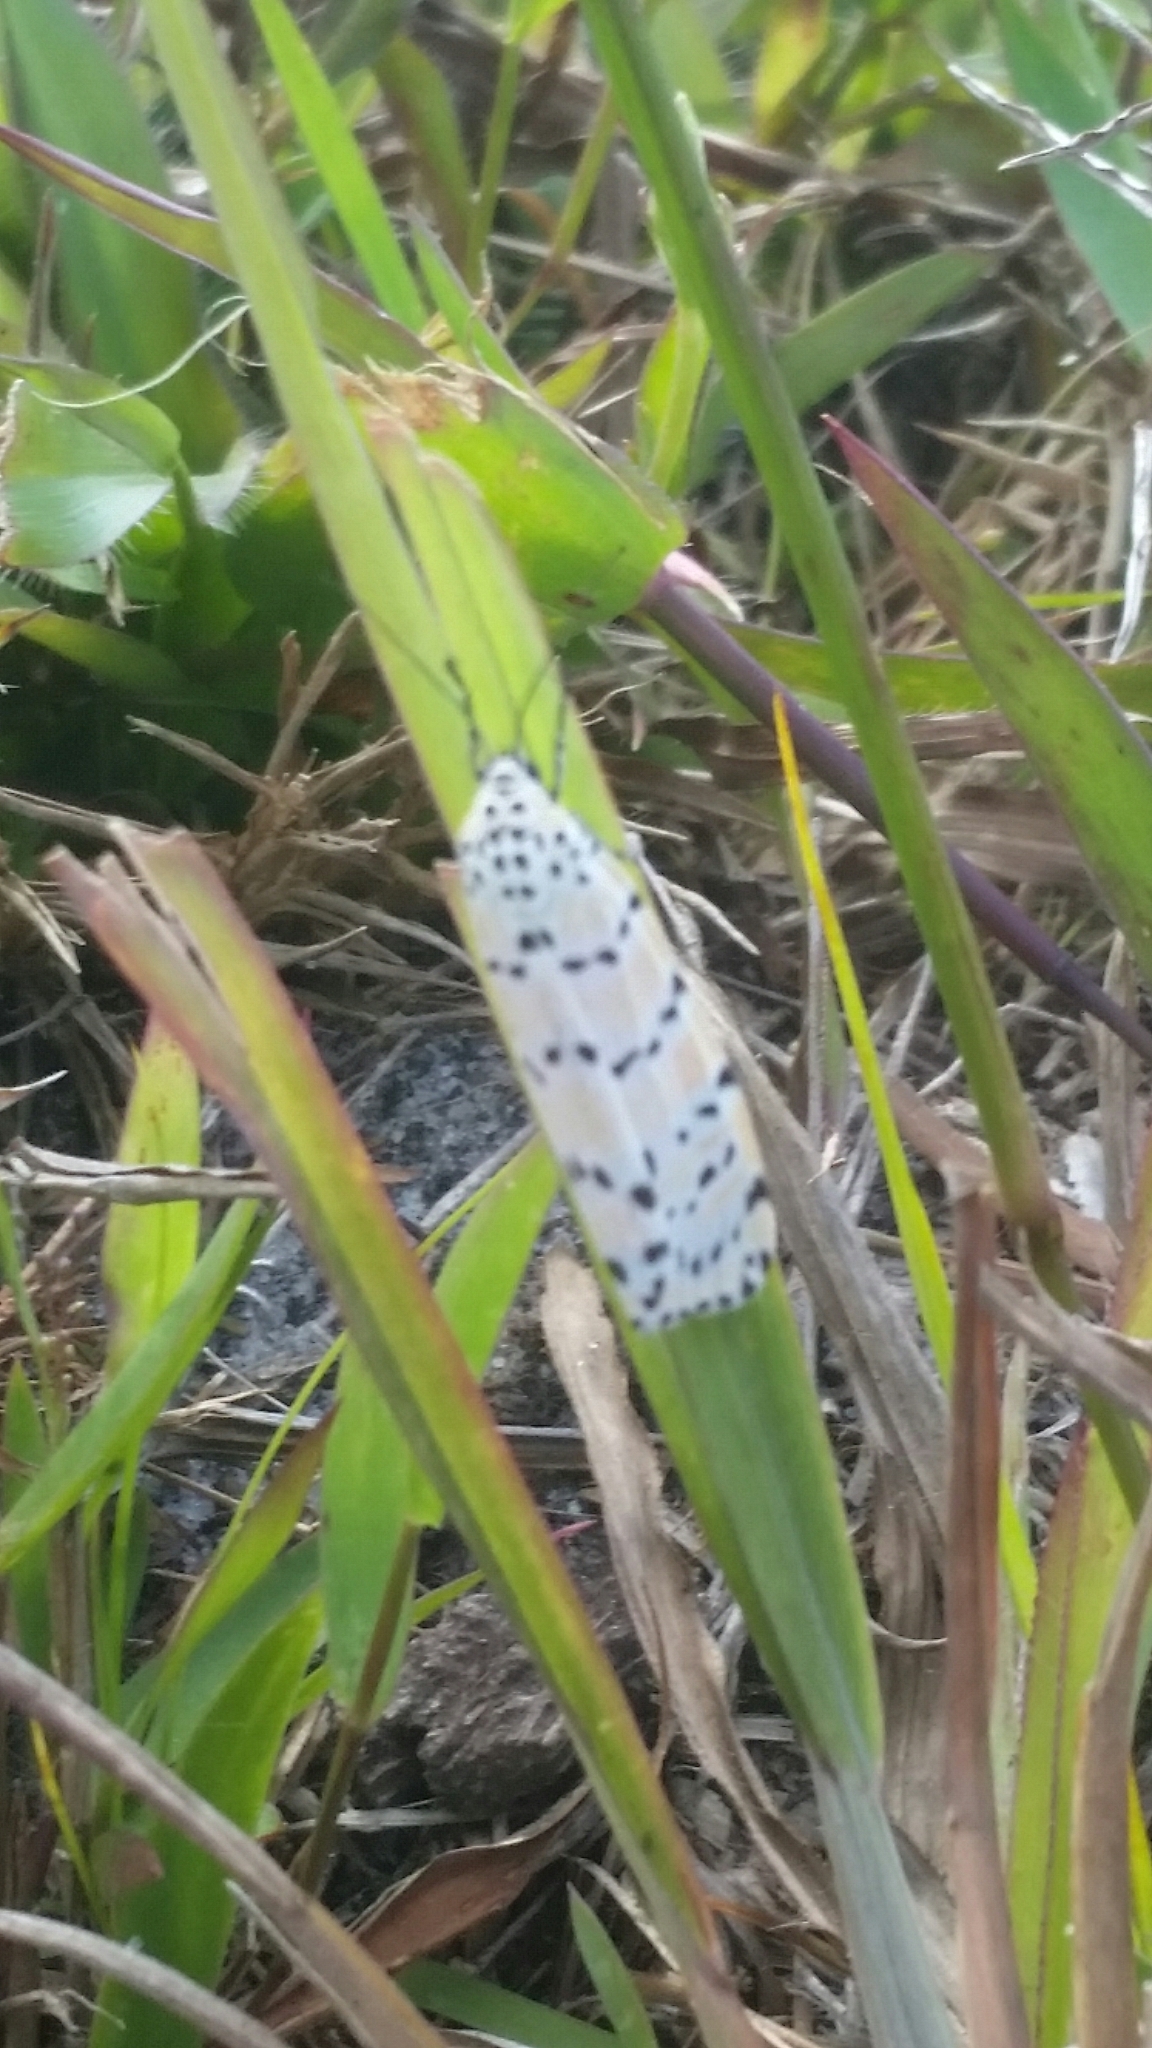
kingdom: Animalia
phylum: Arthropoda
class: Insecta
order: Lepidoptera
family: Erebidae
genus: Utetheisa
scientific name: Utetheisa ornatrix
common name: Beautiful utetheisa
